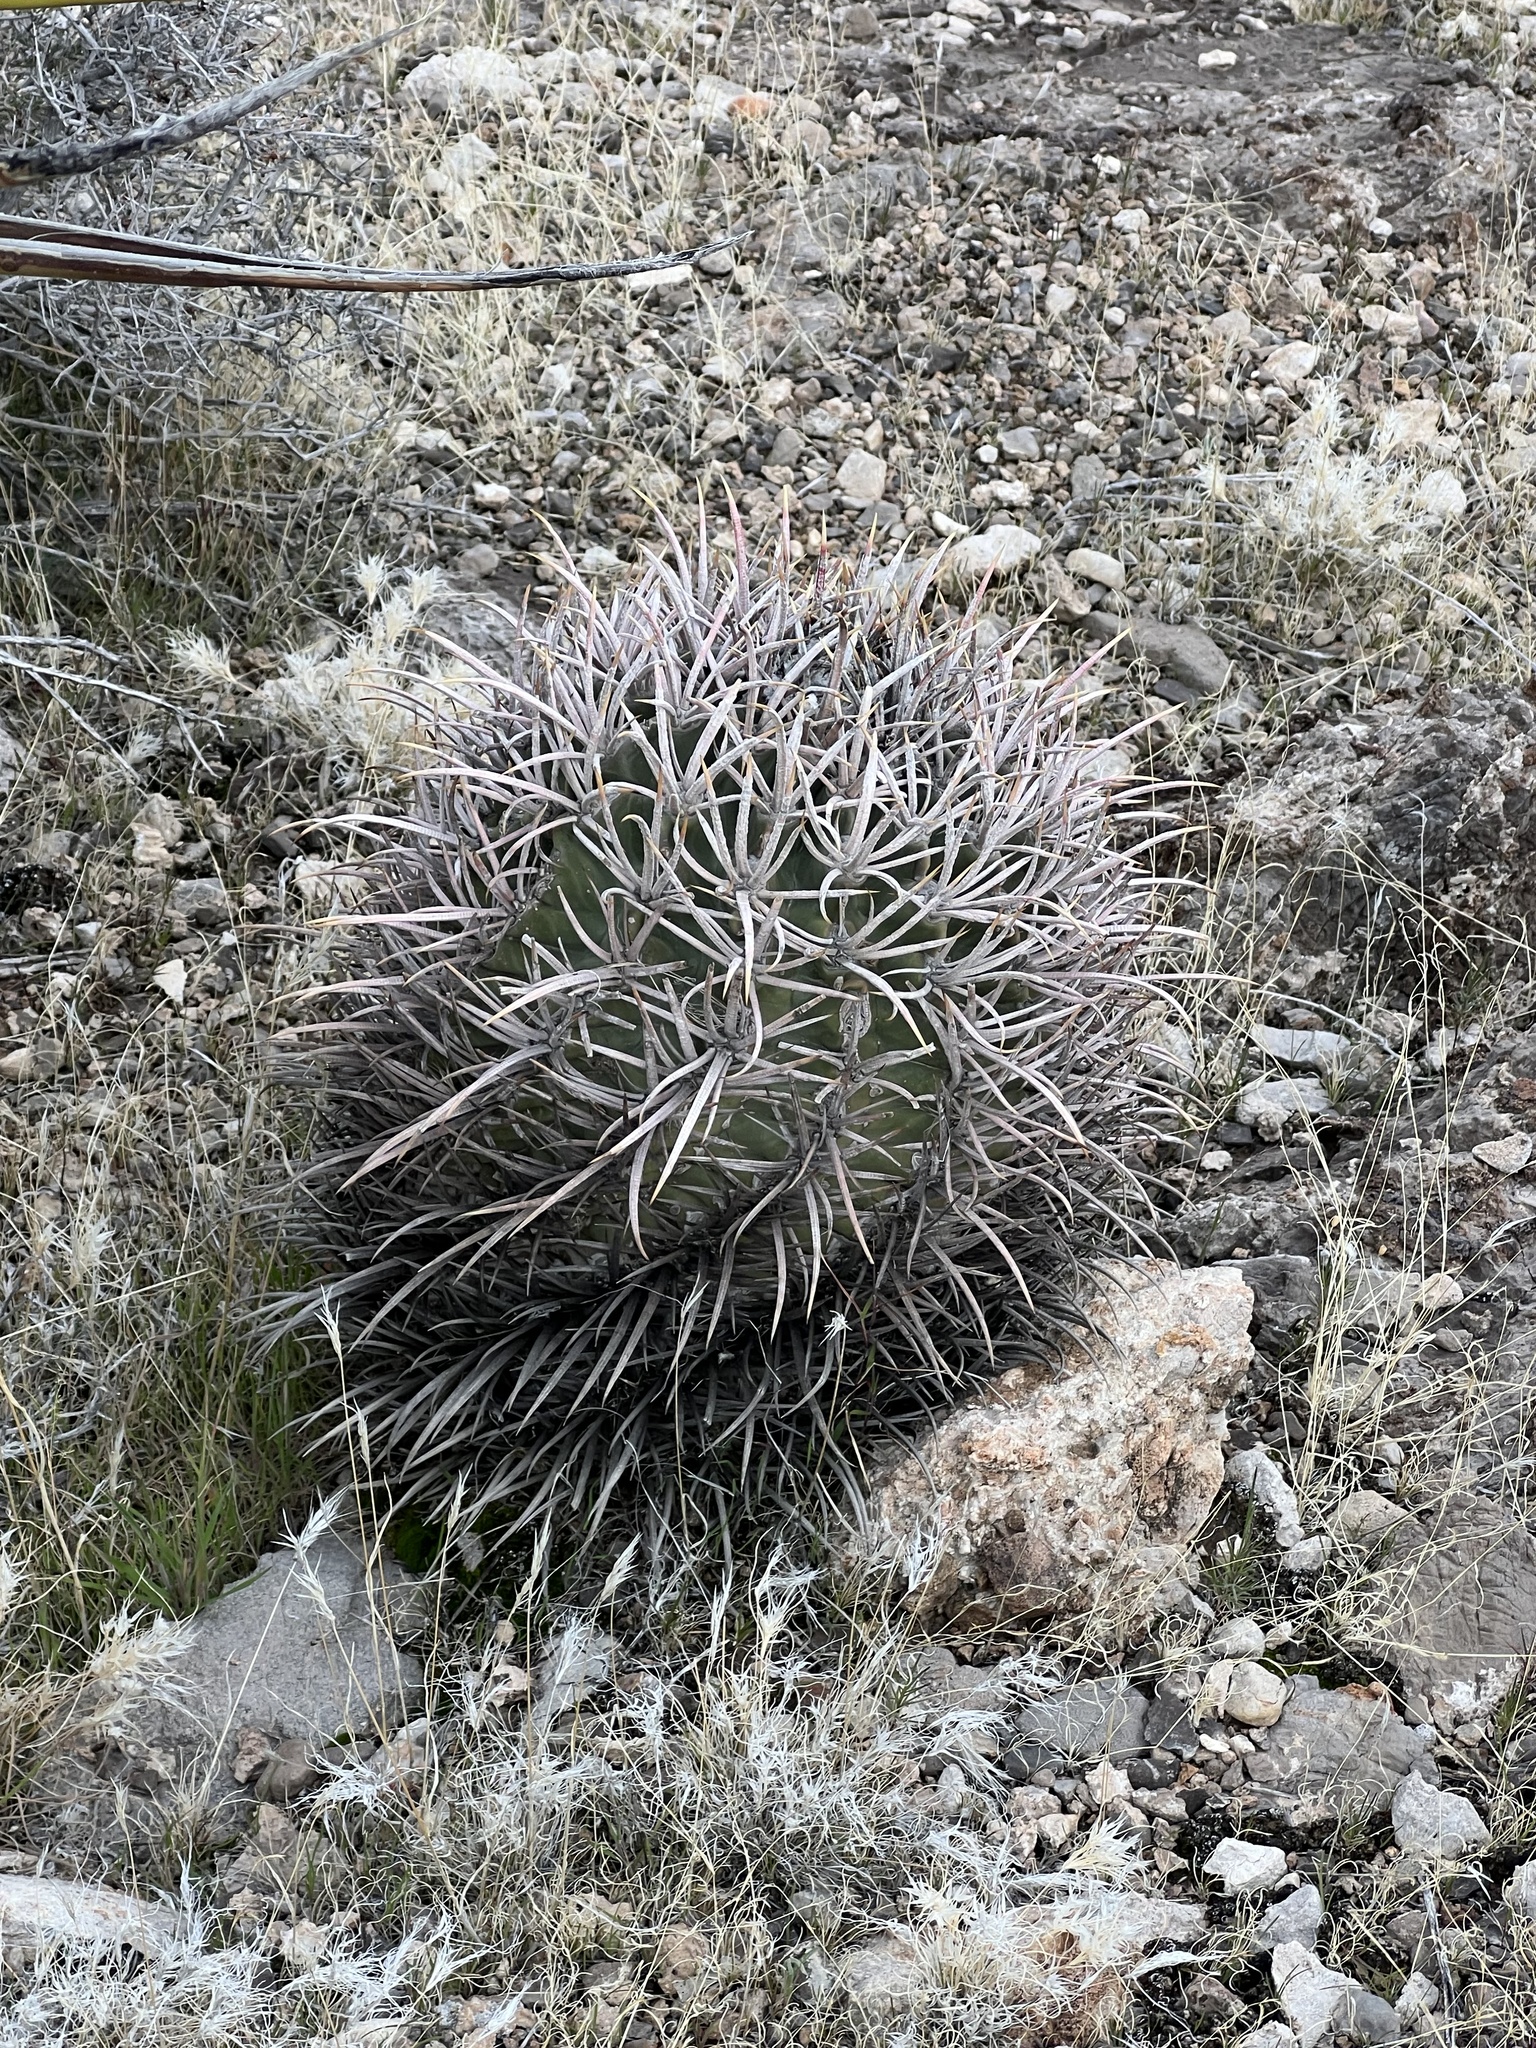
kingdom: Plantae
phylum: Tracheophyta
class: Magnoliopsida
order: Caryophyllales
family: Cactaceae
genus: Echinocactus
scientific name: Echinocactus polycephalus
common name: Cottontop cactus
